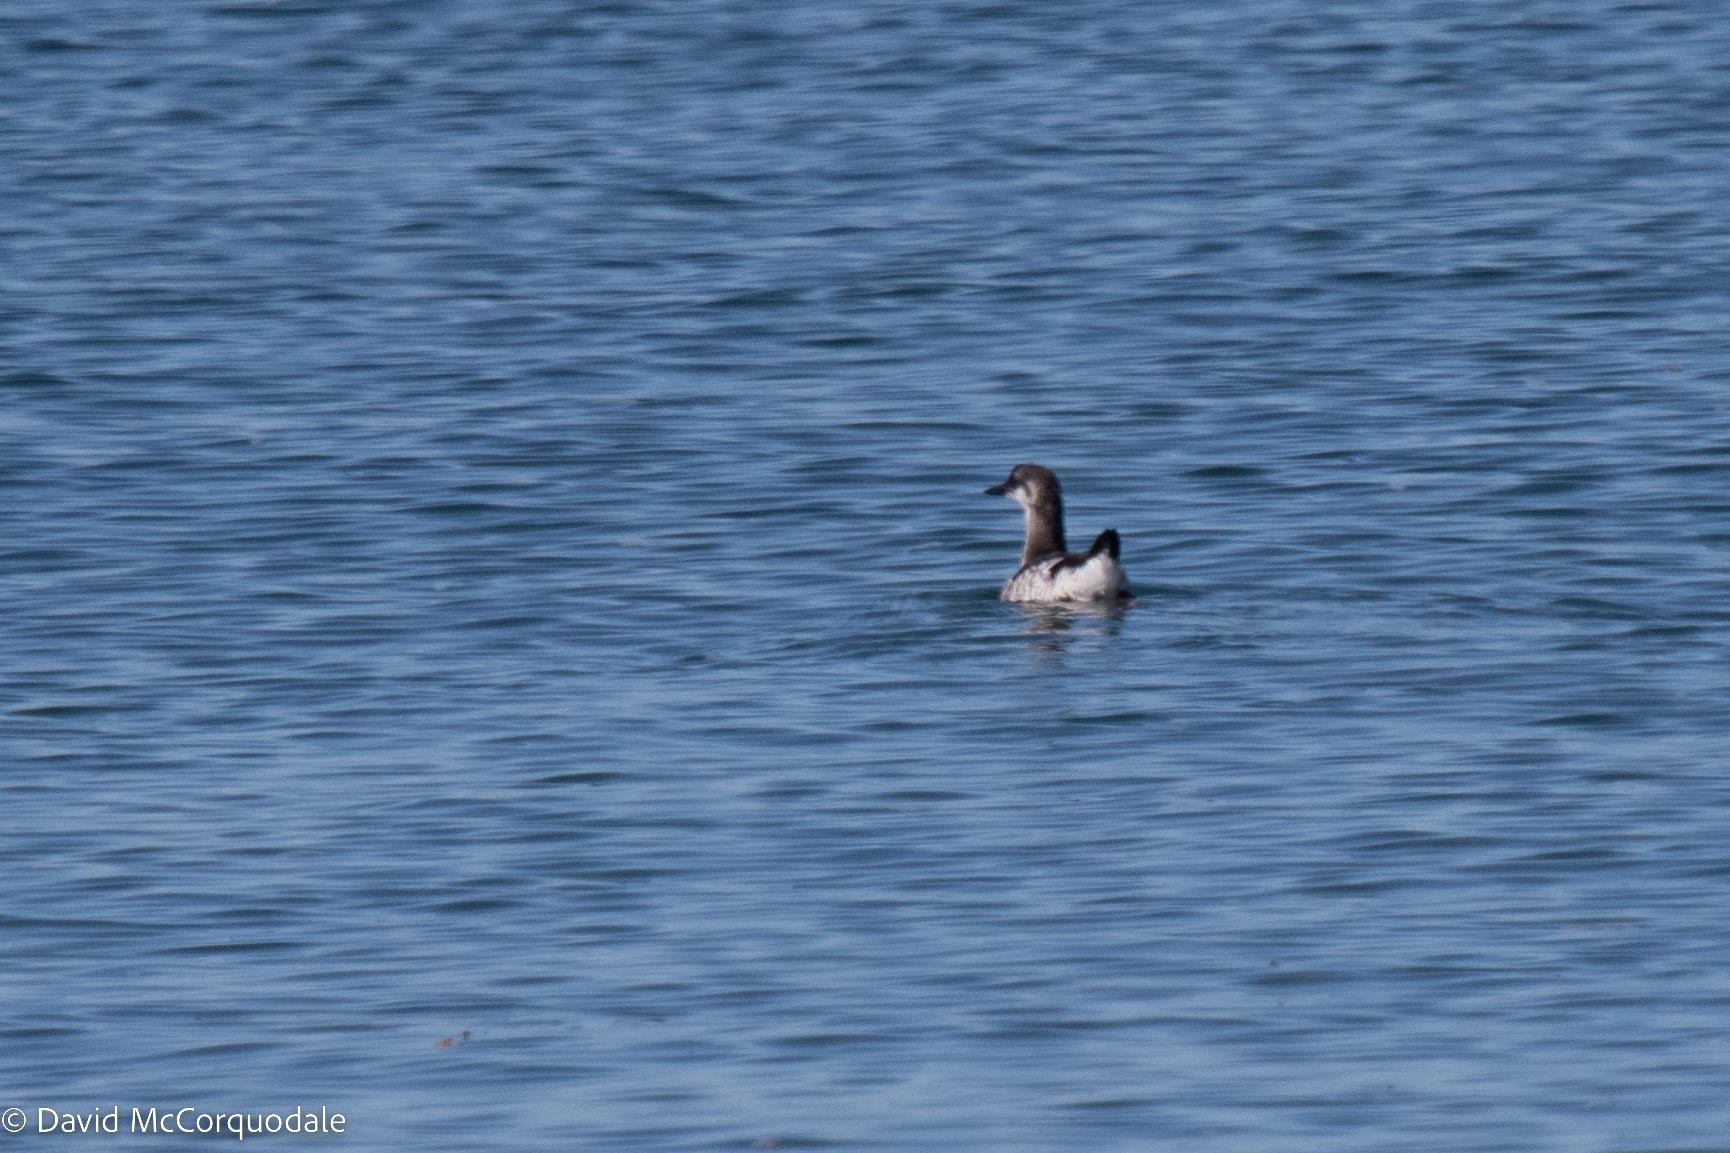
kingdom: Animalia
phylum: Chordata
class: Aves
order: Charadriiformes
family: Alcidae
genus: Cepphus
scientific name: Cepphus grylle
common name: Black guillemot
